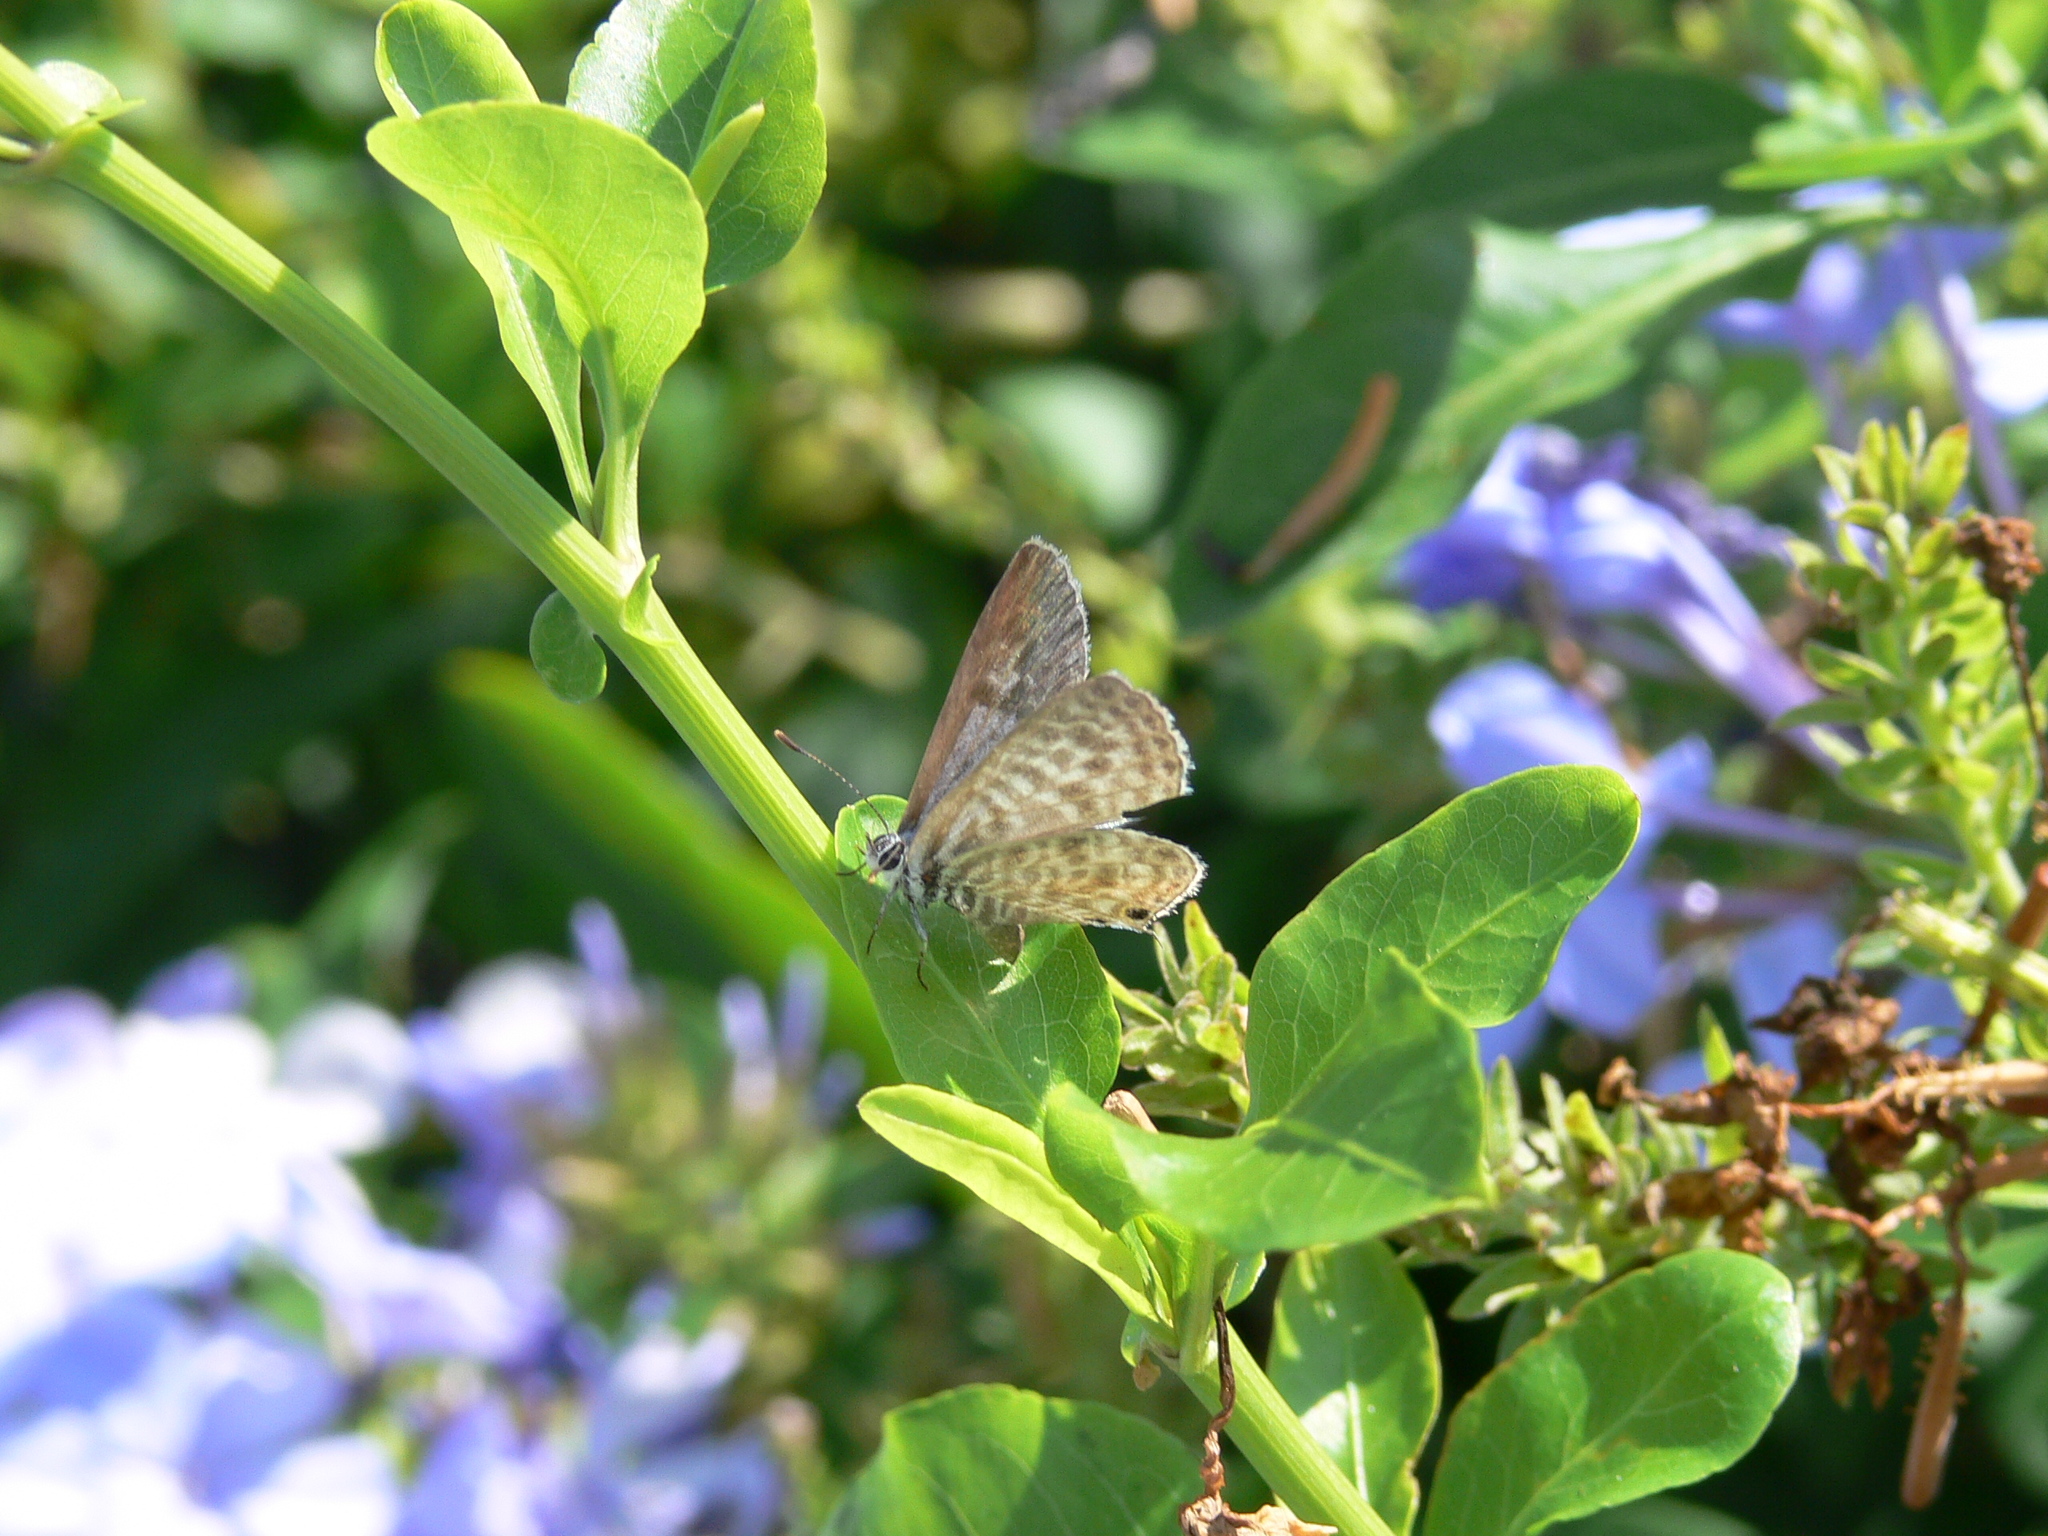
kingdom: Animalia
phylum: Arthropoda
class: Insecta
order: Lepidoptera
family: Lycaenidae
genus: Leptotes
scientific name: Leptotes pirithous
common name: Lang's short-tailed blue
